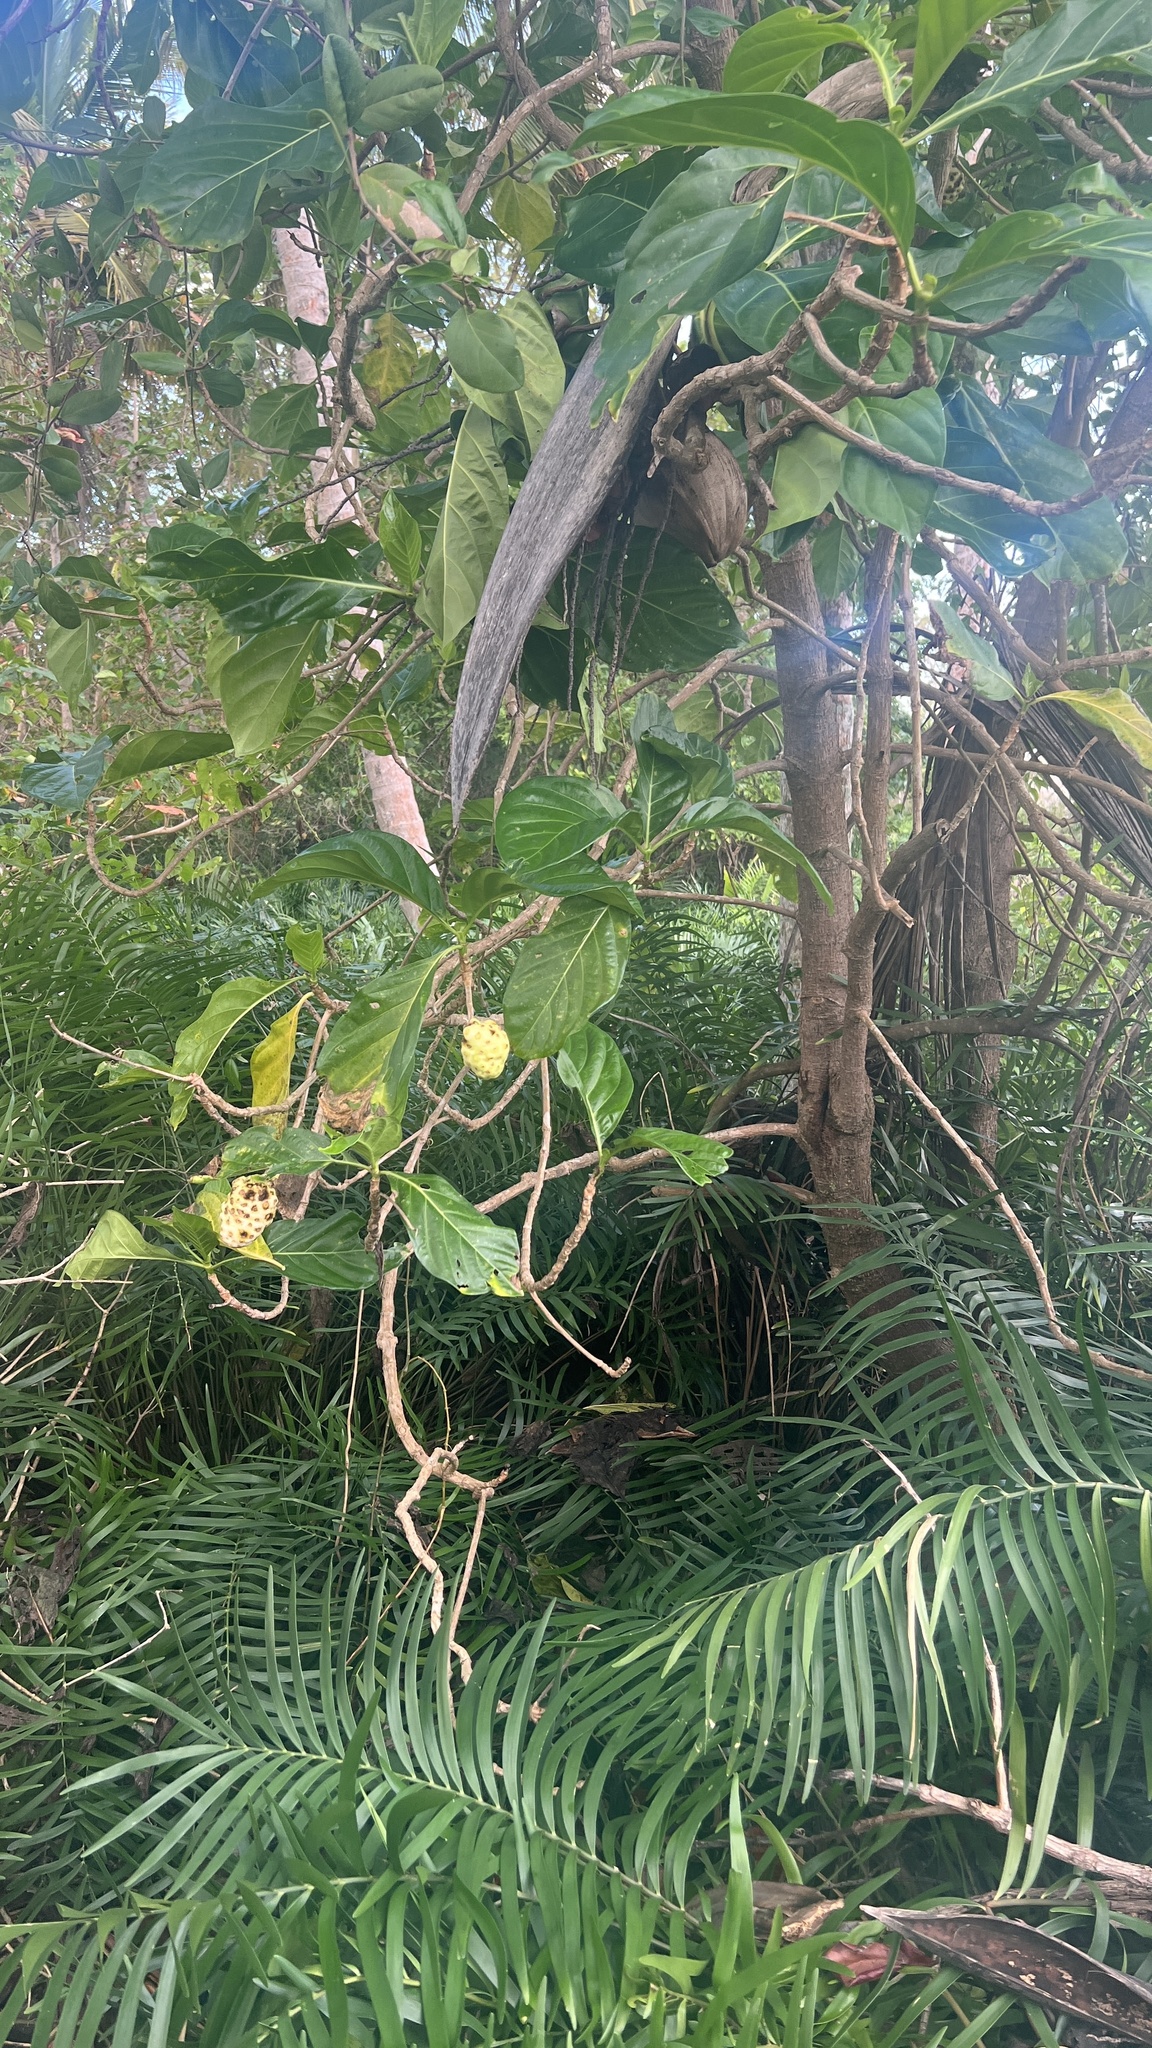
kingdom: Plantae
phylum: Tracheophyta
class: Magnoliopsida
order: Gentianales
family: Rubiaceae
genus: Morinda
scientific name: Morinda citrifolia
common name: Indian-mulberry
